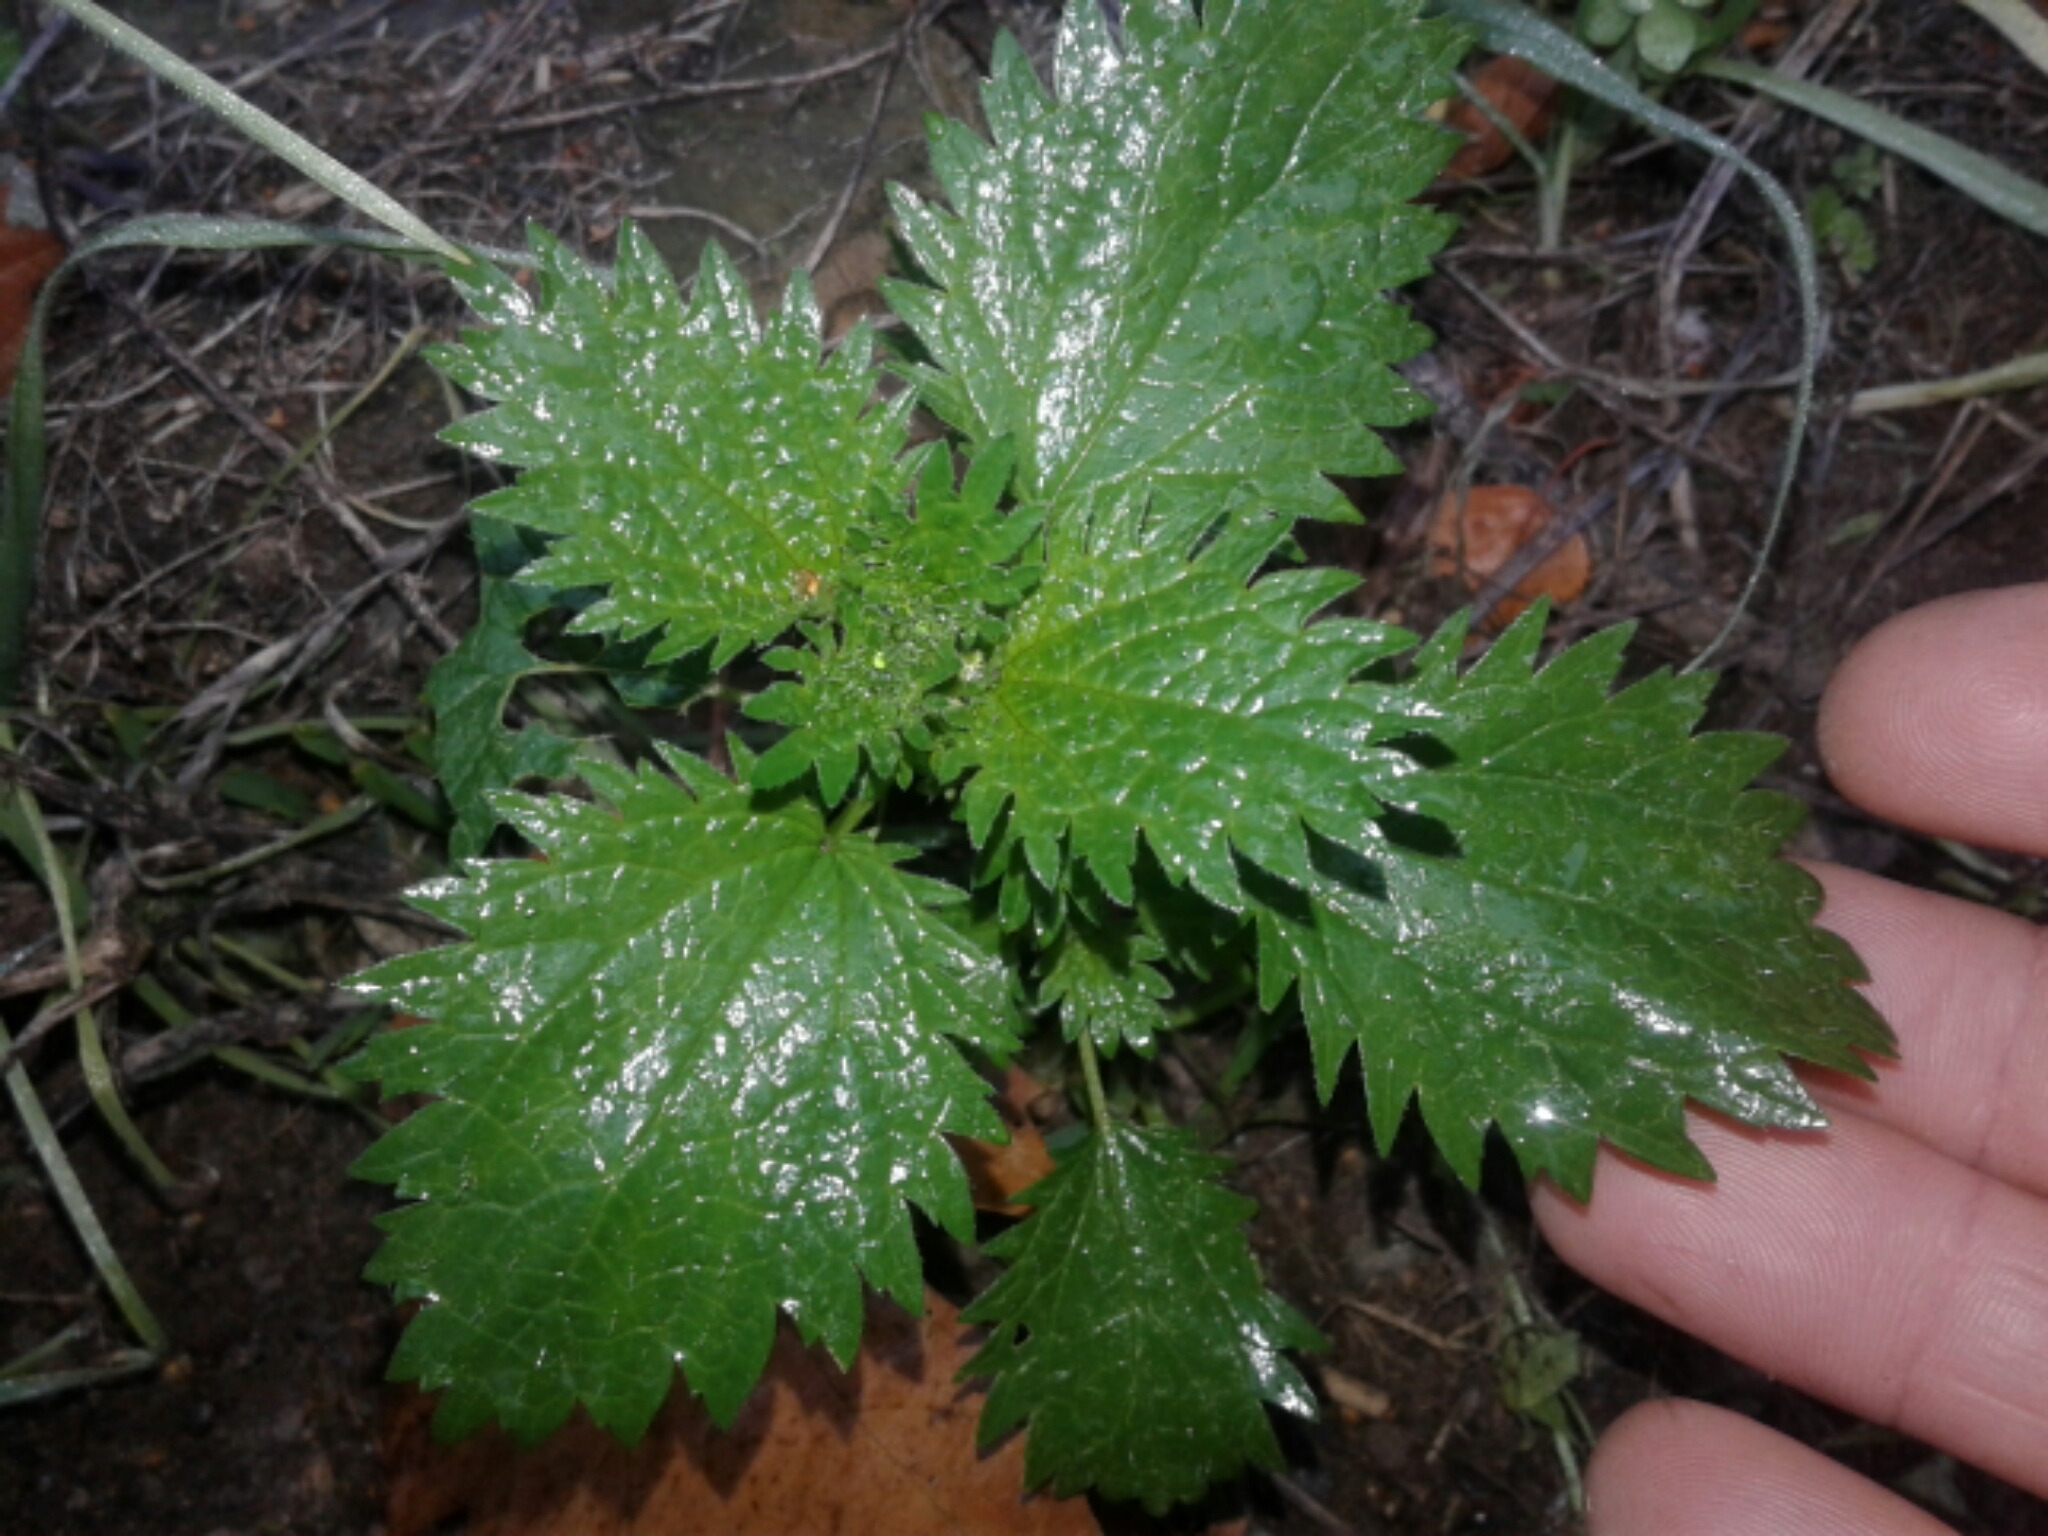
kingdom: Plantae
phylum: Tracheophyta
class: Magnoliopsida
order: Rosales
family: Urticaceae
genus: Urtica
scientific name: Urtica urens
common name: Dwarf nettle
